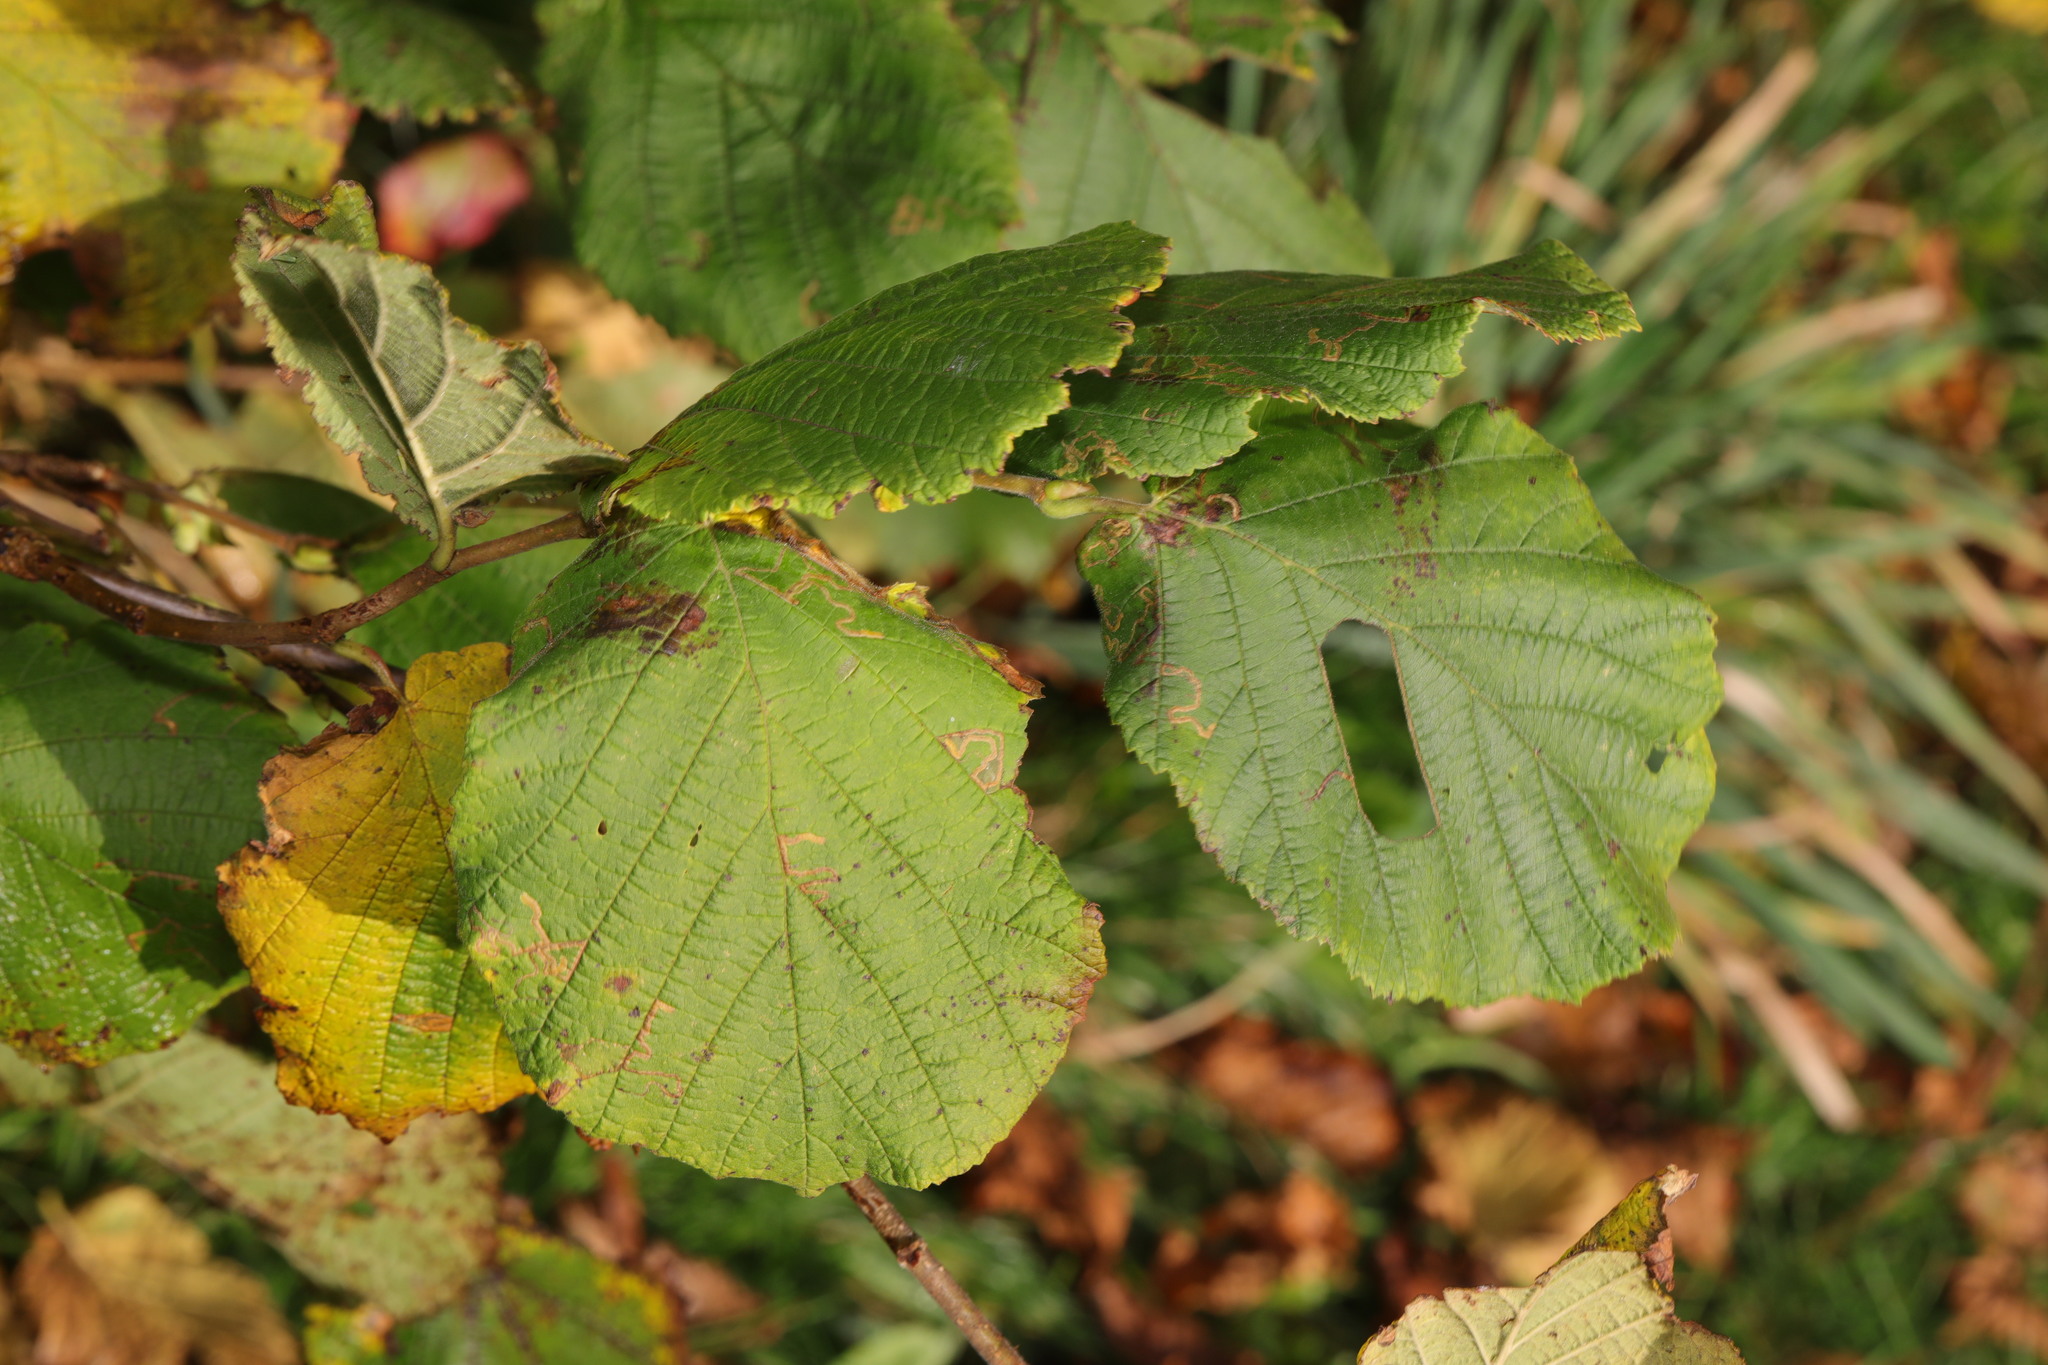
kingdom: Plantae
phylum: Tracheophyta
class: Magnoliopsida
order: Fagales
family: Betulaceae
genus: Corylus
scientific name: Corylus avellana
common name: European hazel
